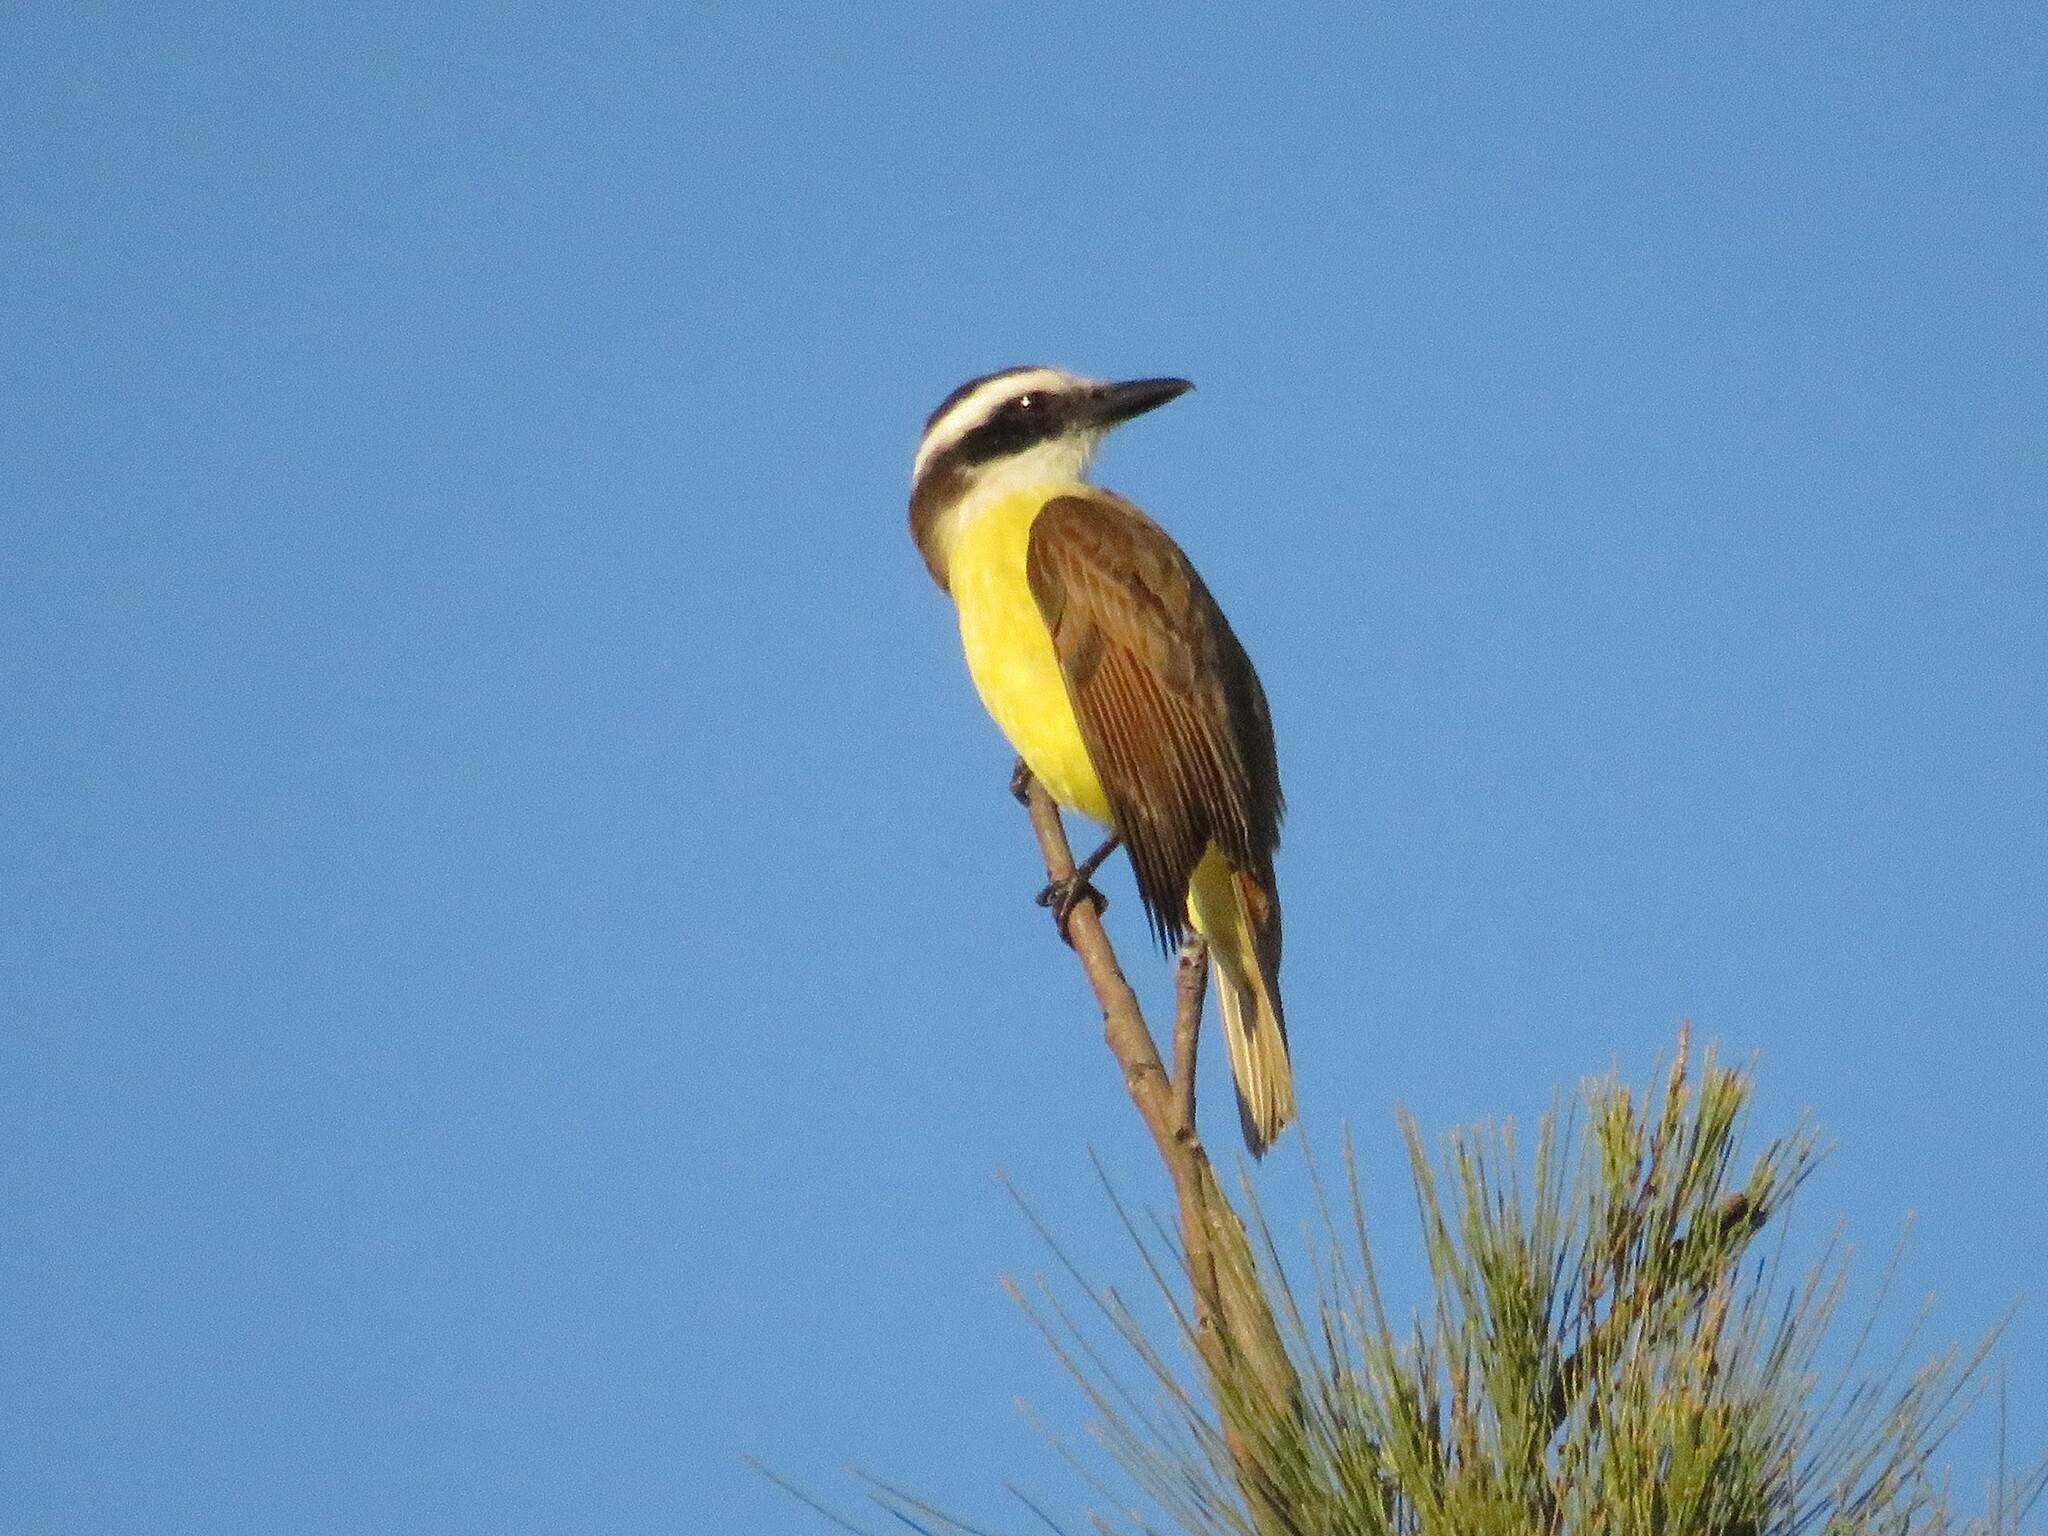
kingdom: Animalia
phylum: Chordata
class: Aves
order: Passeriformes
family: Tyrannidae
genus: Pitangus
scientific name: Pitangus sulphuratus
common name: Great kiskadee
